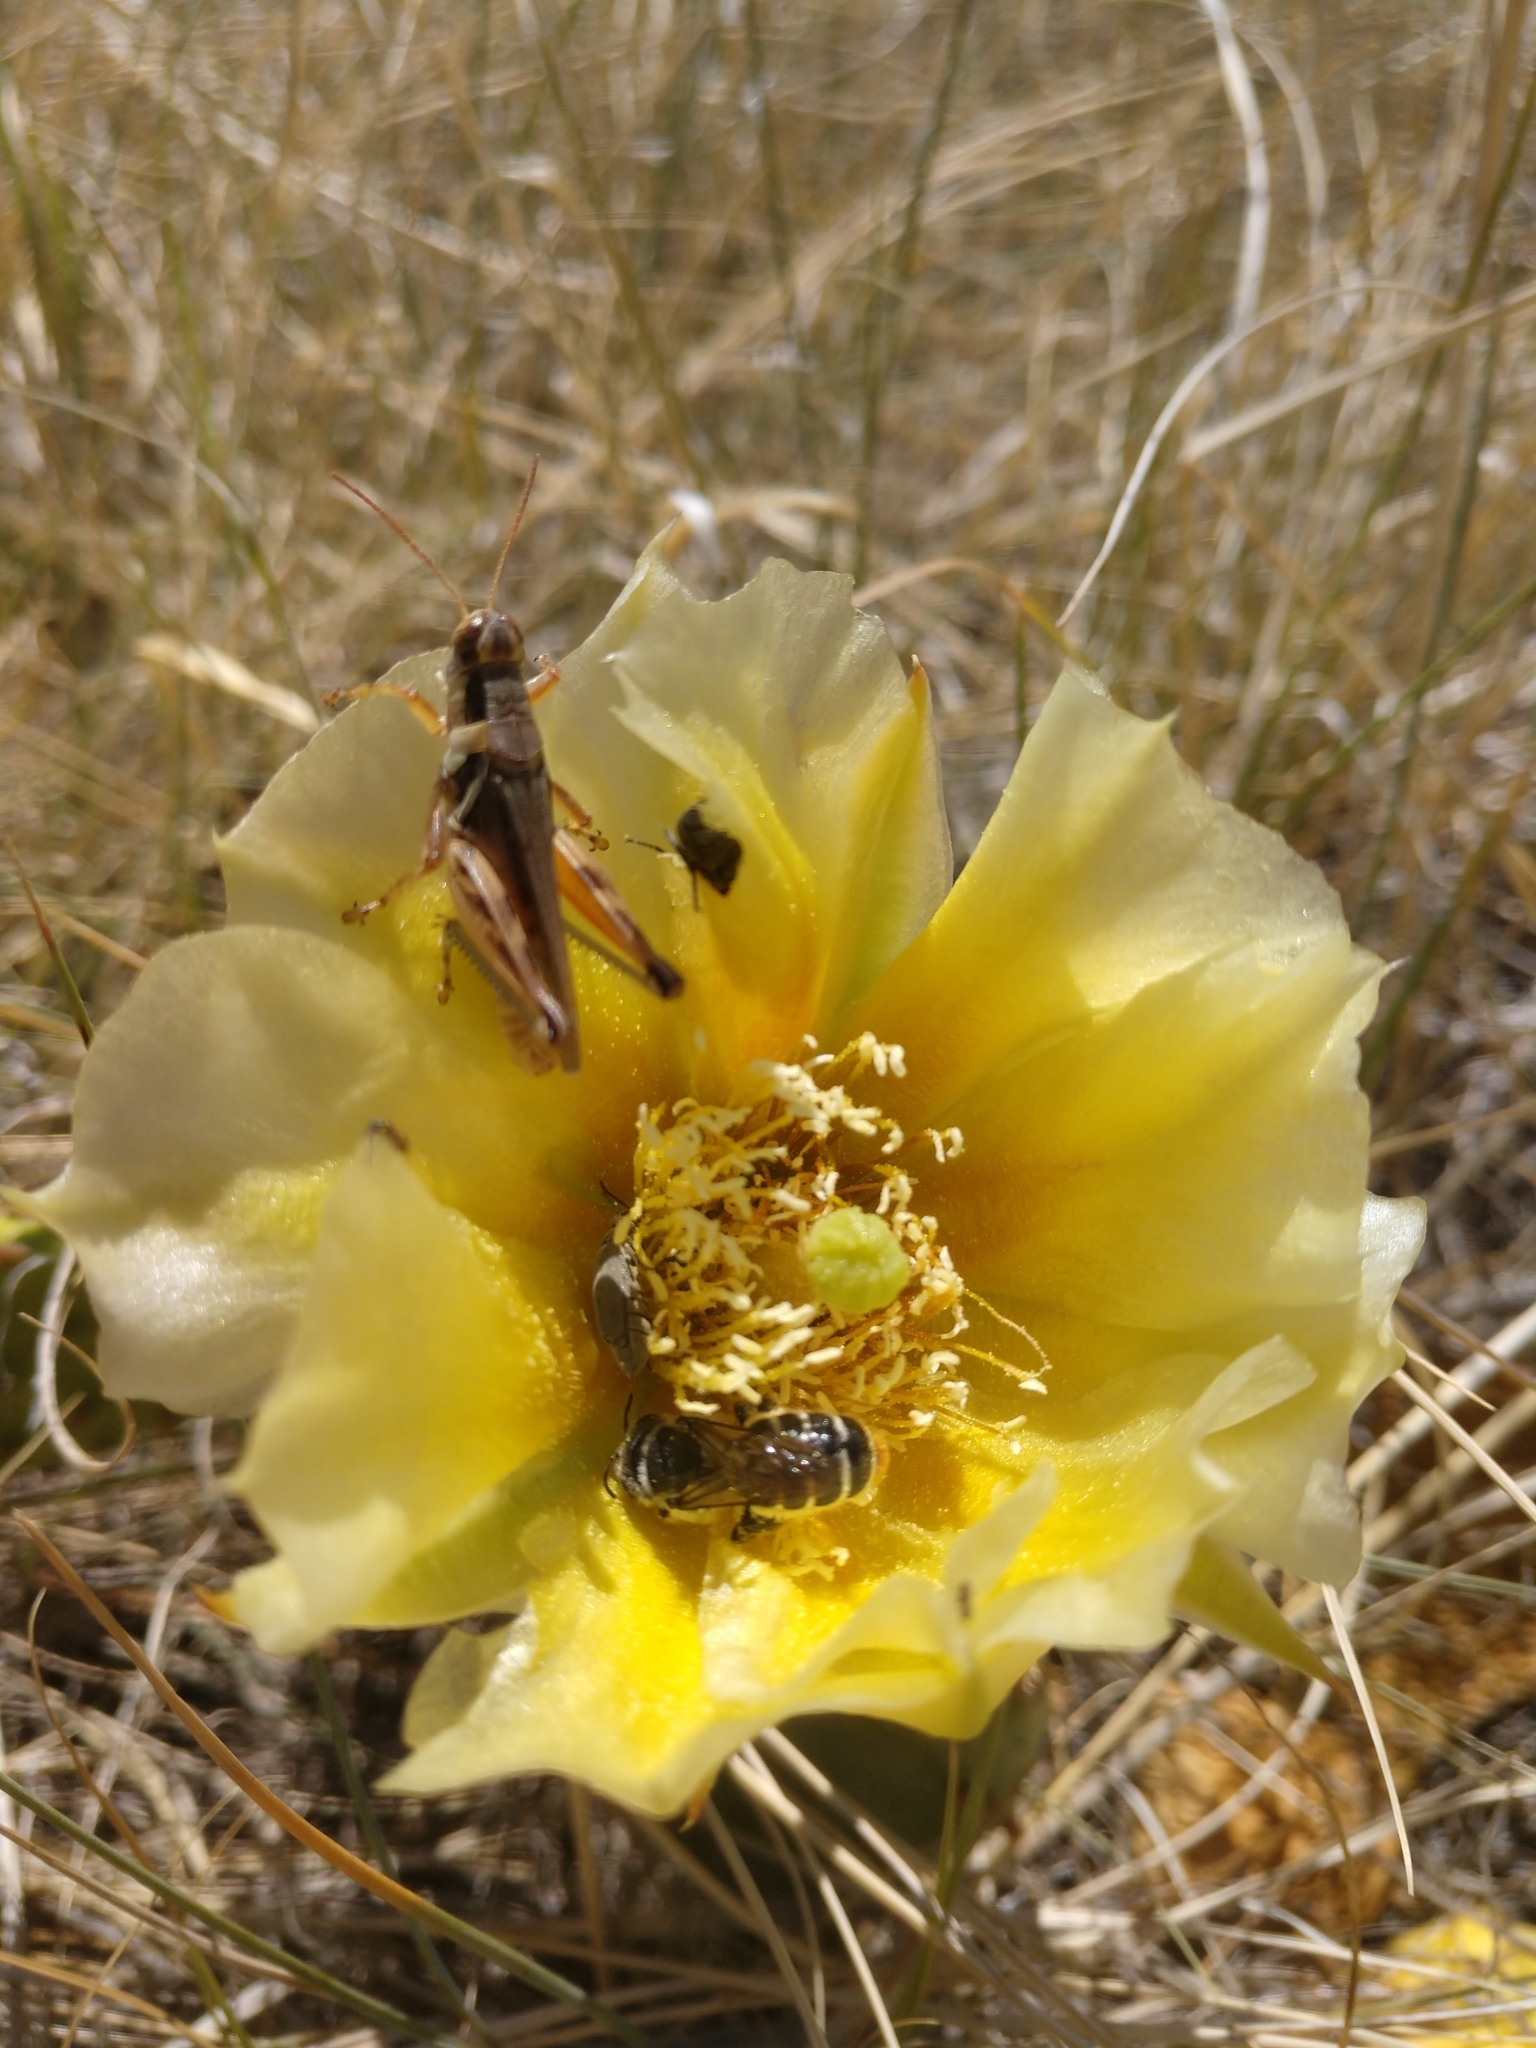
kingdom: Animalia
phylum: Arthropoda
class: Insecta
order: Hymenoptera
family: Megachilidae
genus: Lithurgopsis
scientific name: Lithurgopsis apicalis
